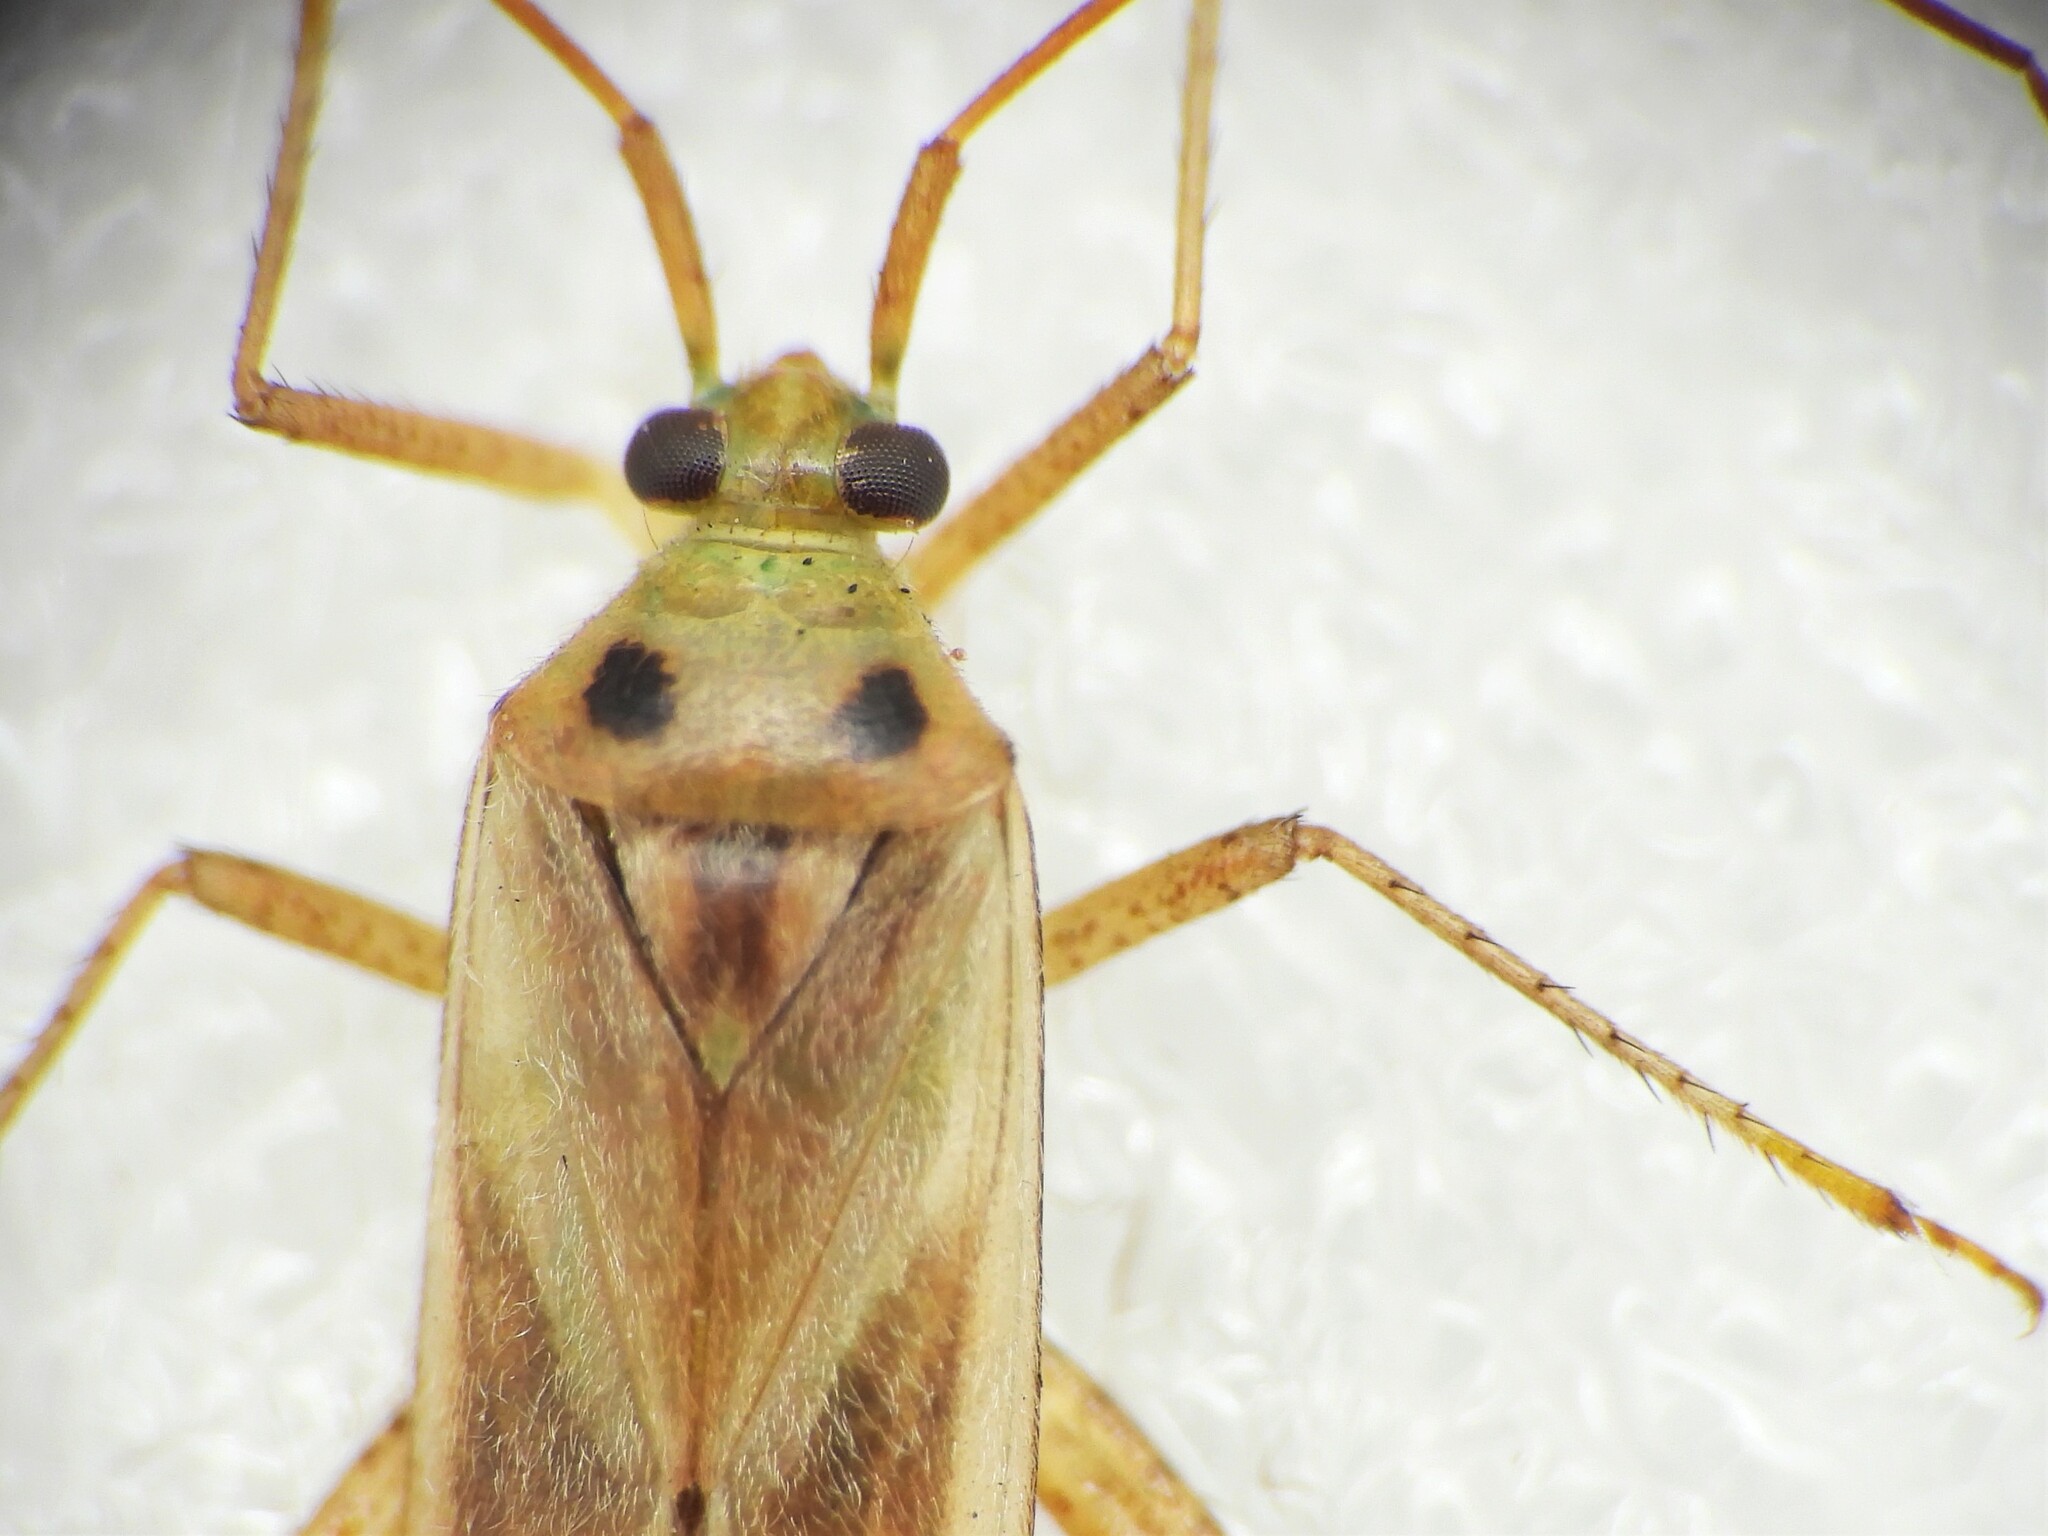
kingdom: Animalia
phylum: Arthropoda
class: Insecta
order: Hemiptera
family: Miridae
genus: Adelphocoris
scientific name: Adelphocoris lineolatus
